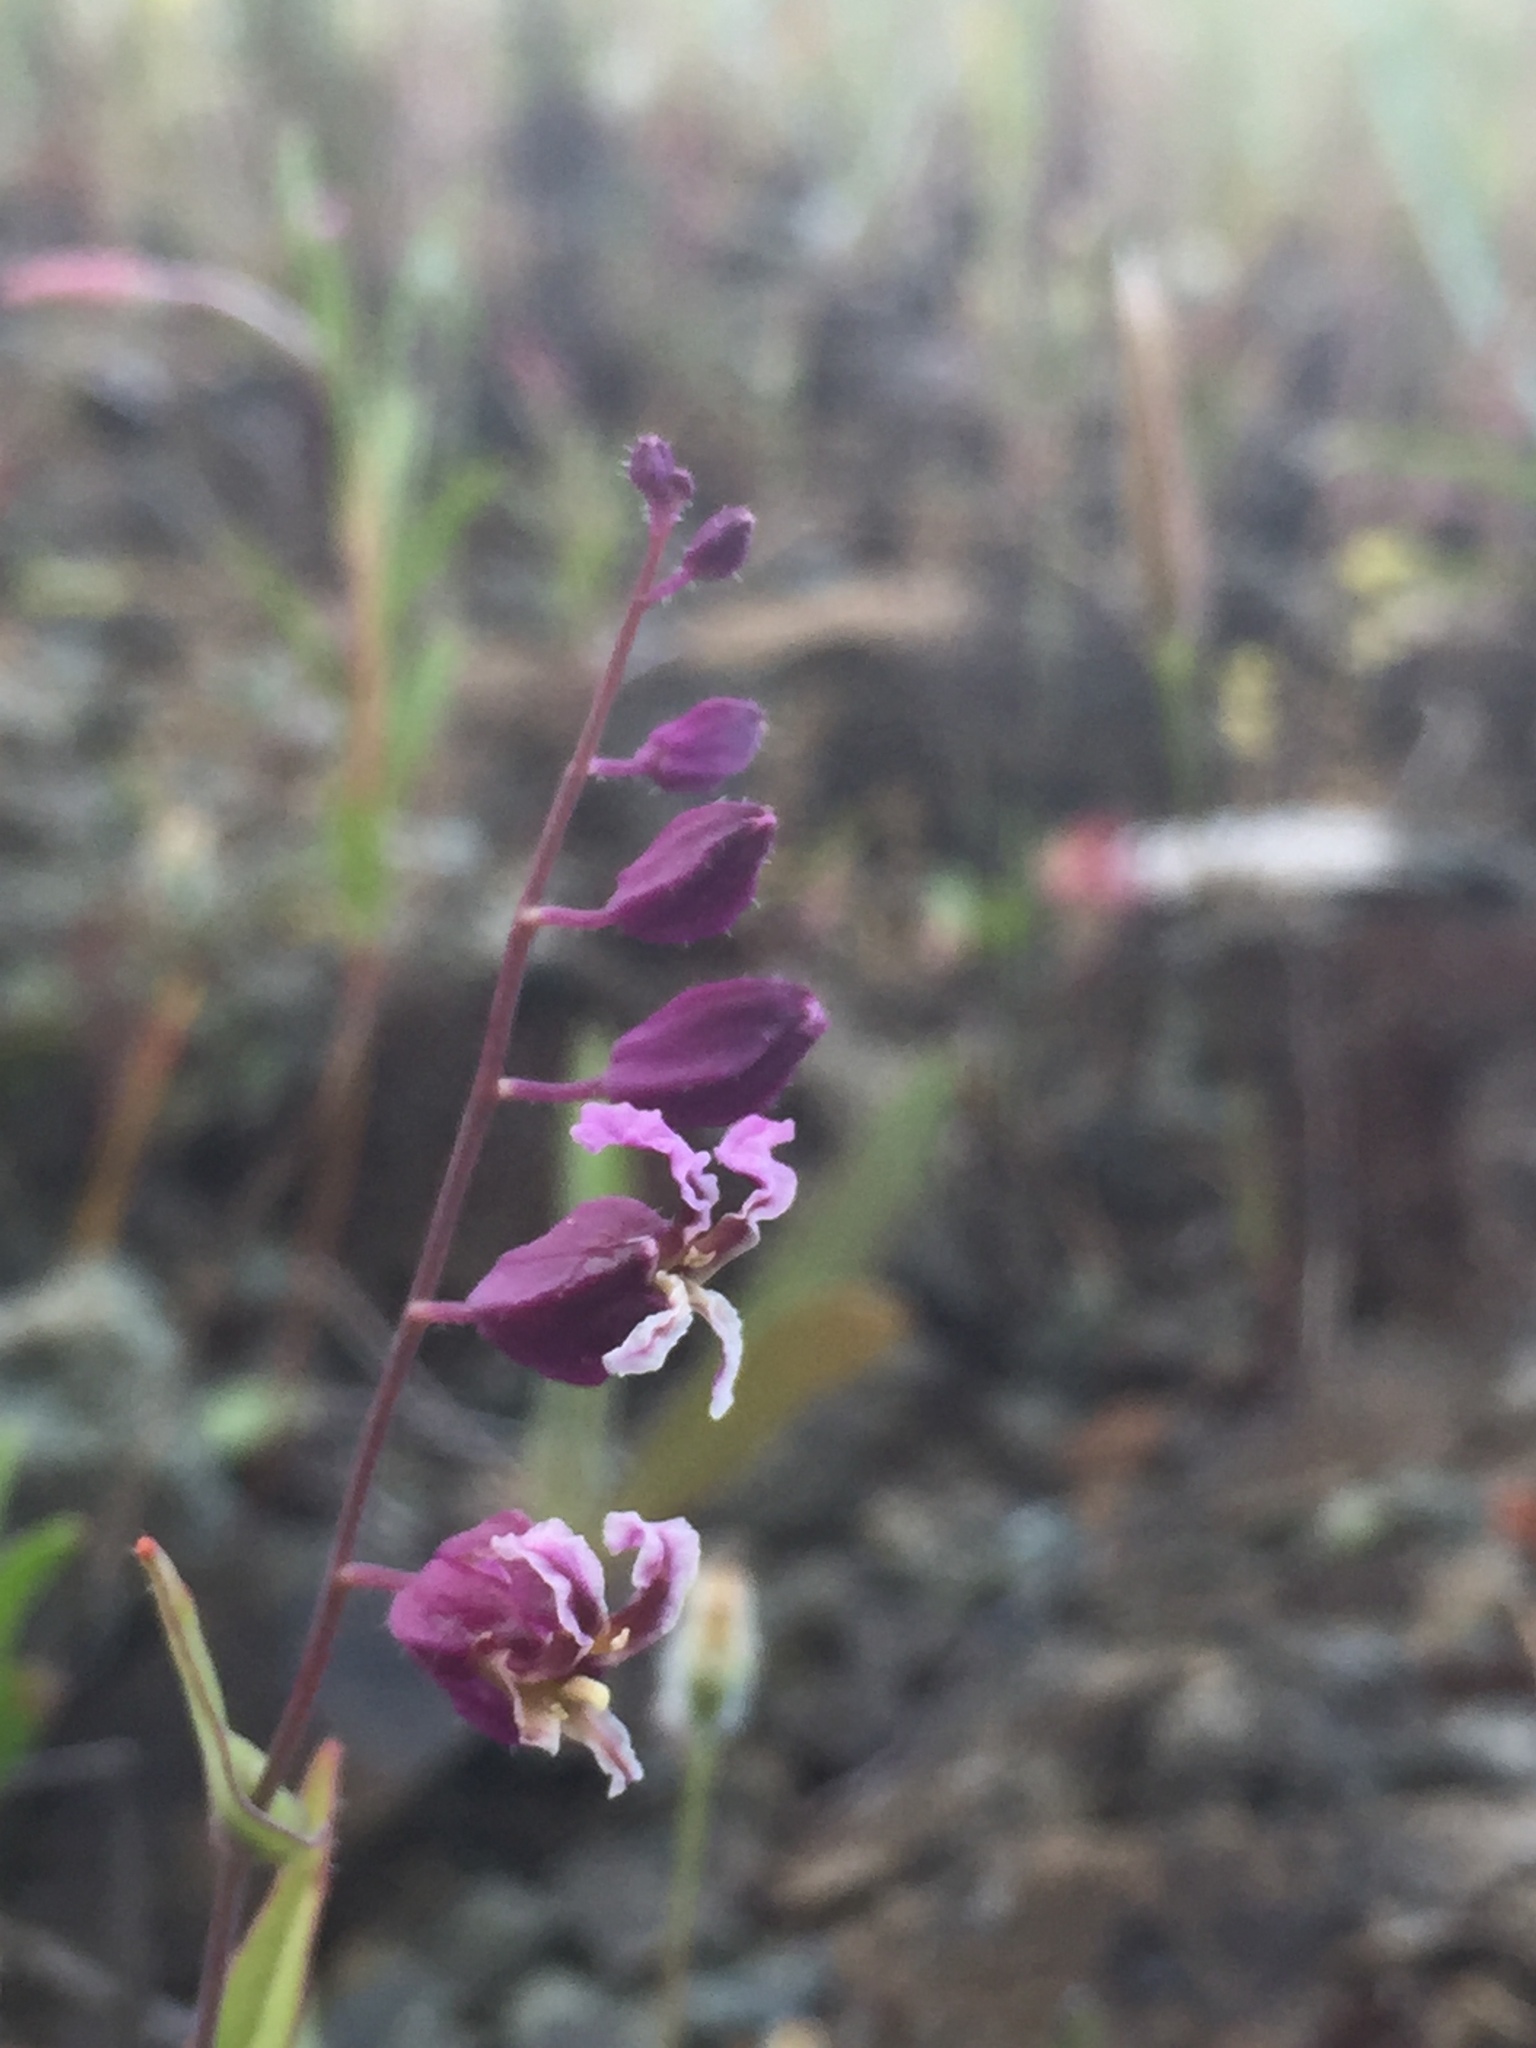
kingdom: Plantae
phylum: Tracheophyta
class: Magnoliopsida
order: Brassicales
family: Brassicaceae
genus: Streptanthus
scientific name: Streptanthus glandulosus
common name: Jewel-flower
